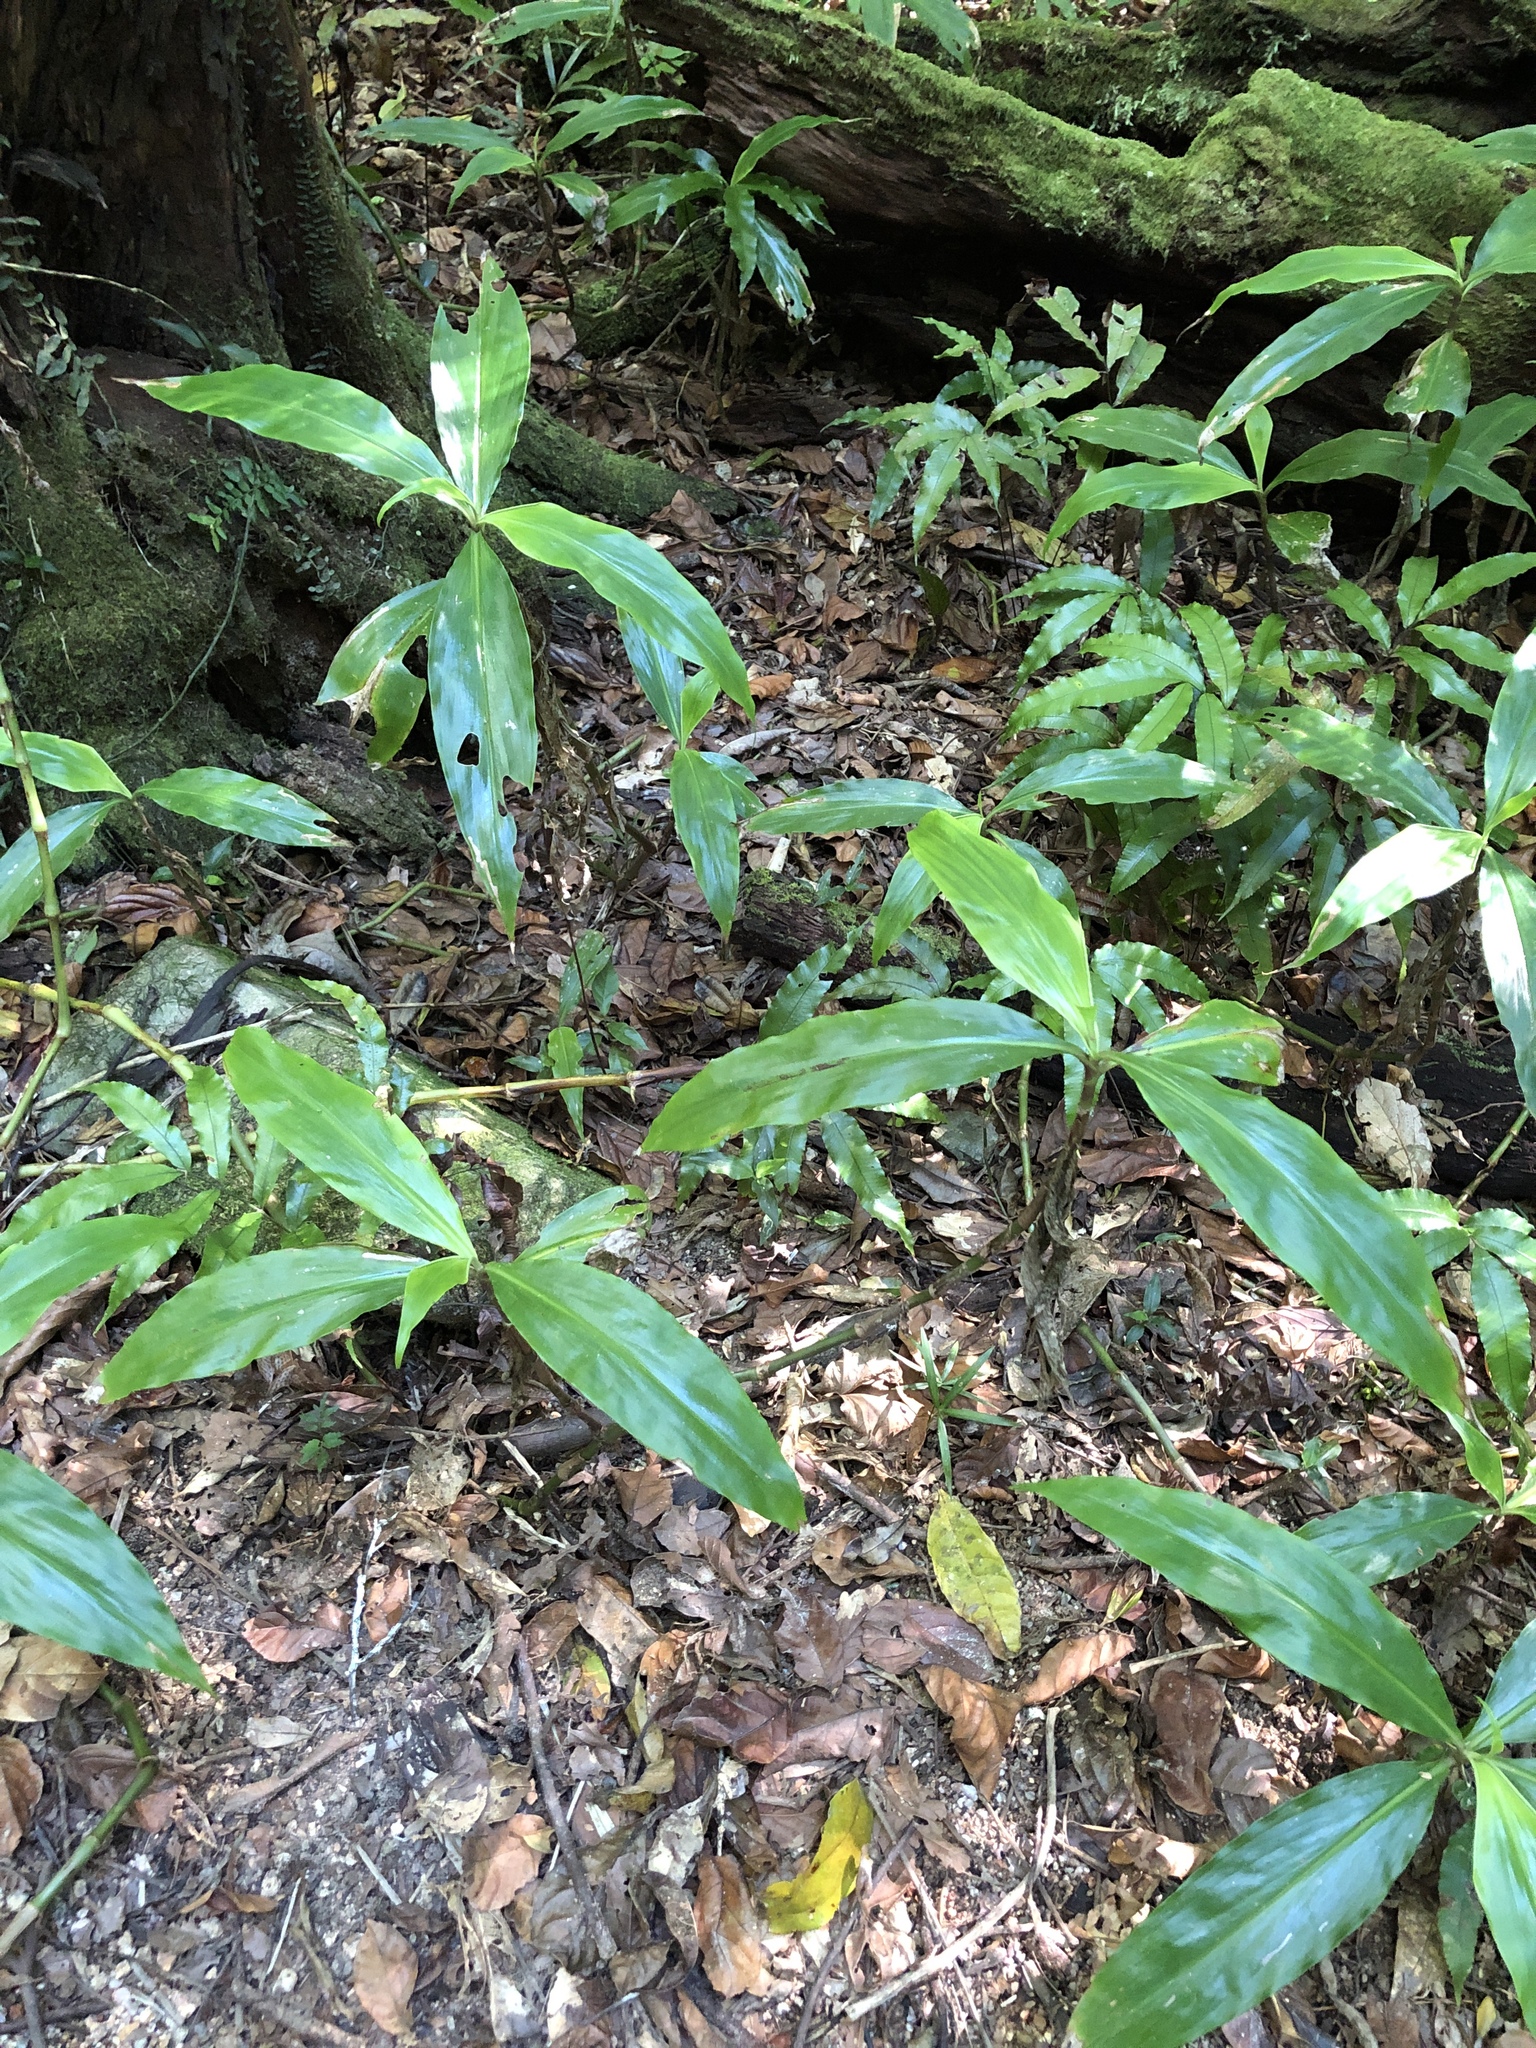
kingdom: Plantae
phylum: Tracheophyta
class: Liliopsida
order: Commelinales
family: Commelinaceae
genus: Pollia
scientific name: Pollia macrophylla
